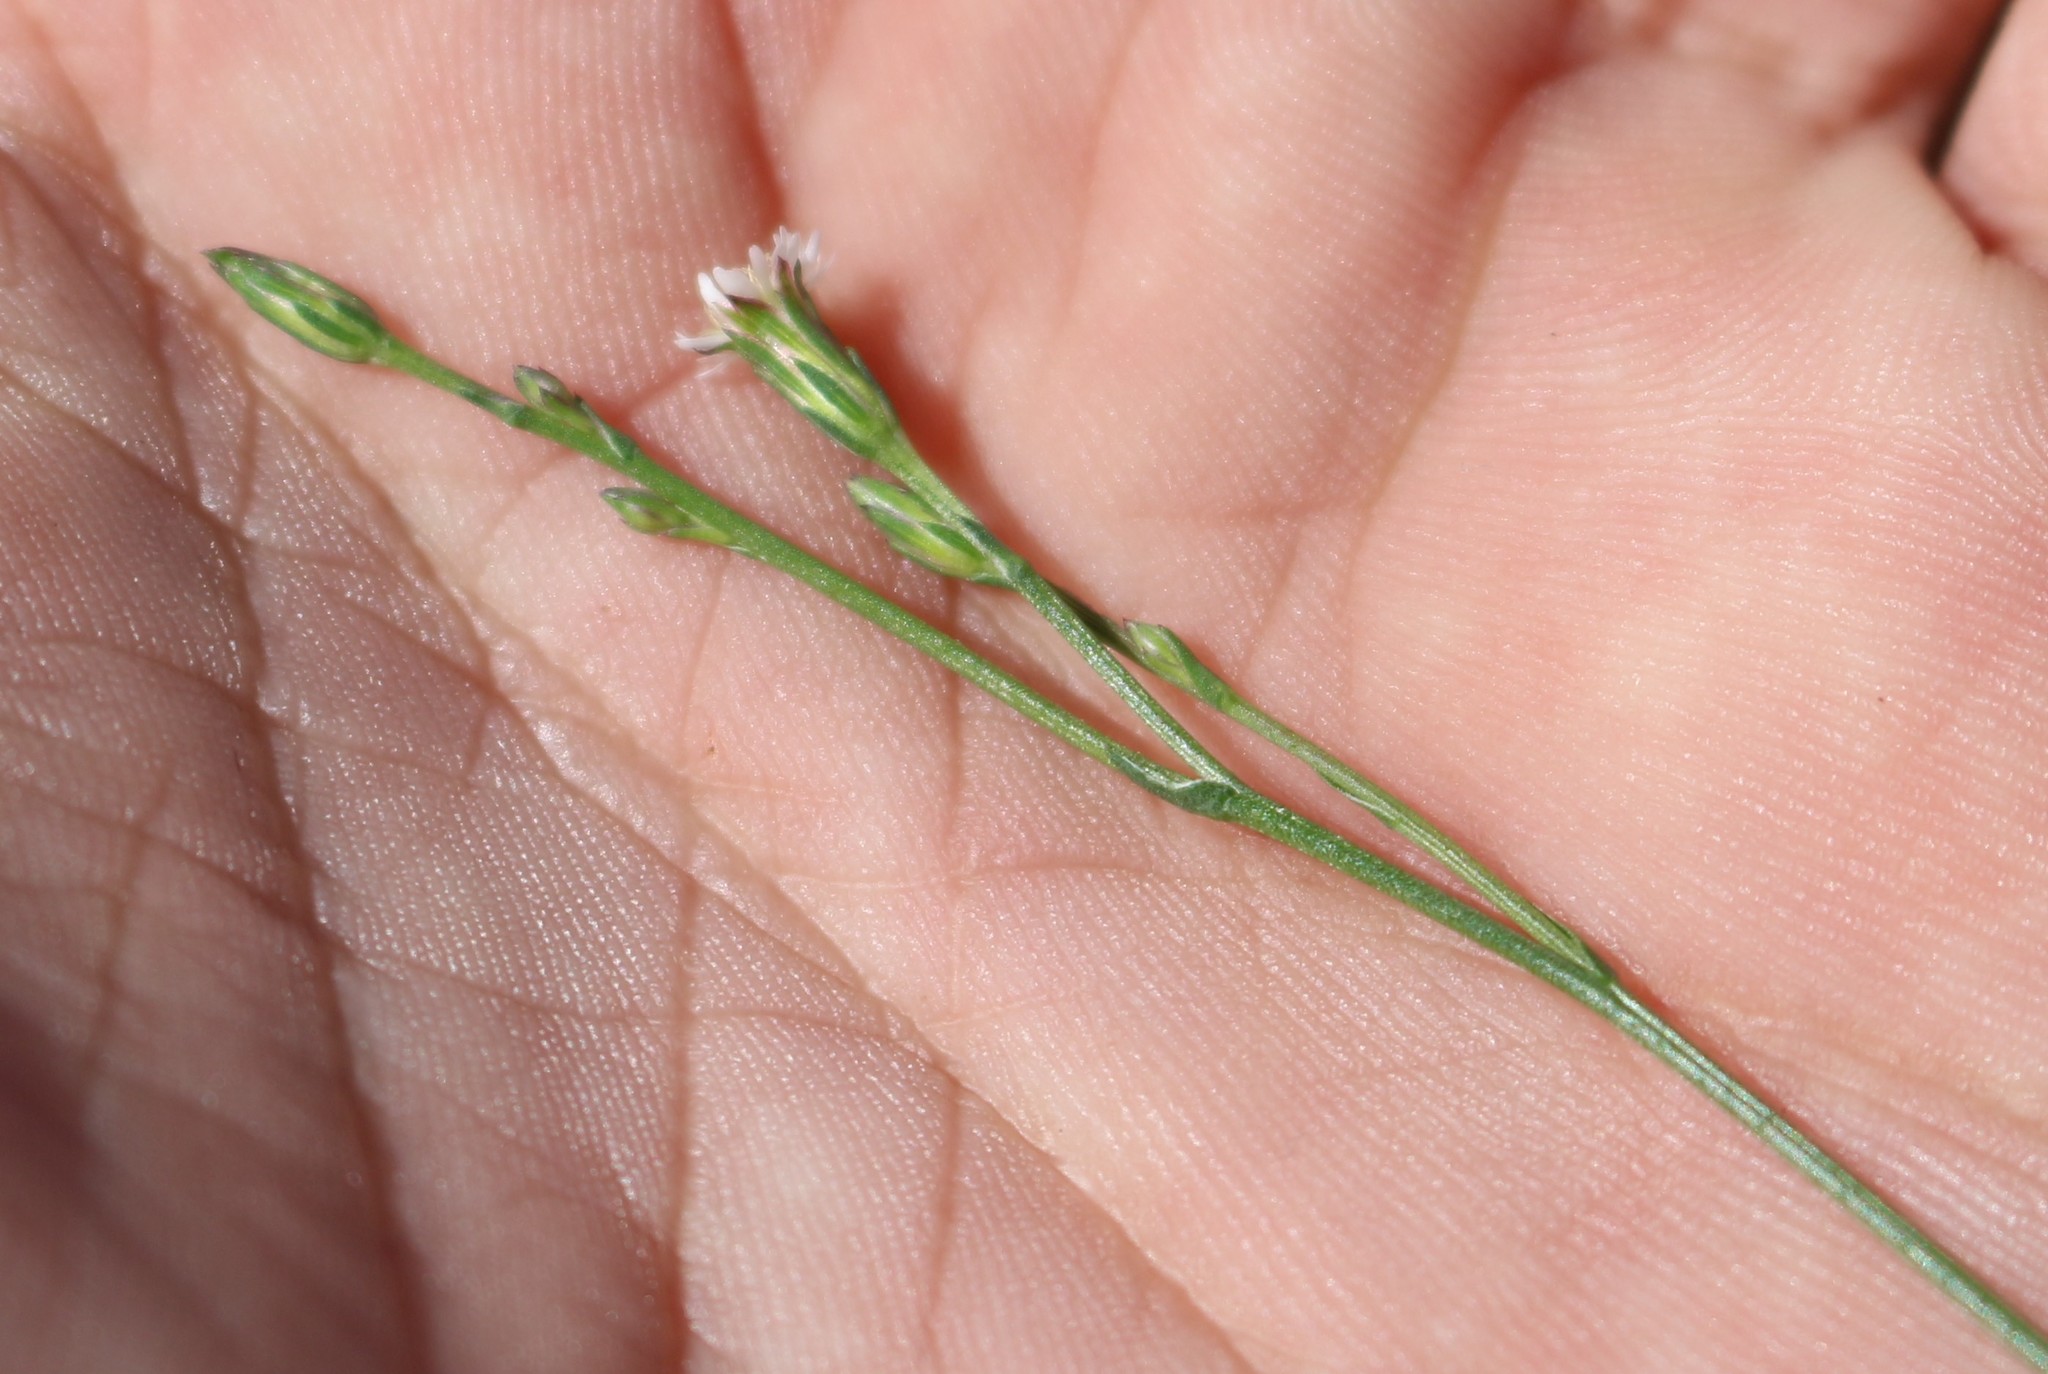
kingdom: Plantae
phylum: Tracheophyta
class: Magnoliopsida
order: Asterales
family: Asteraceae
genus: Symphyotrichum
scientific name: Symphyotrichum subulatum
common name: Annual saltmarsh aster
